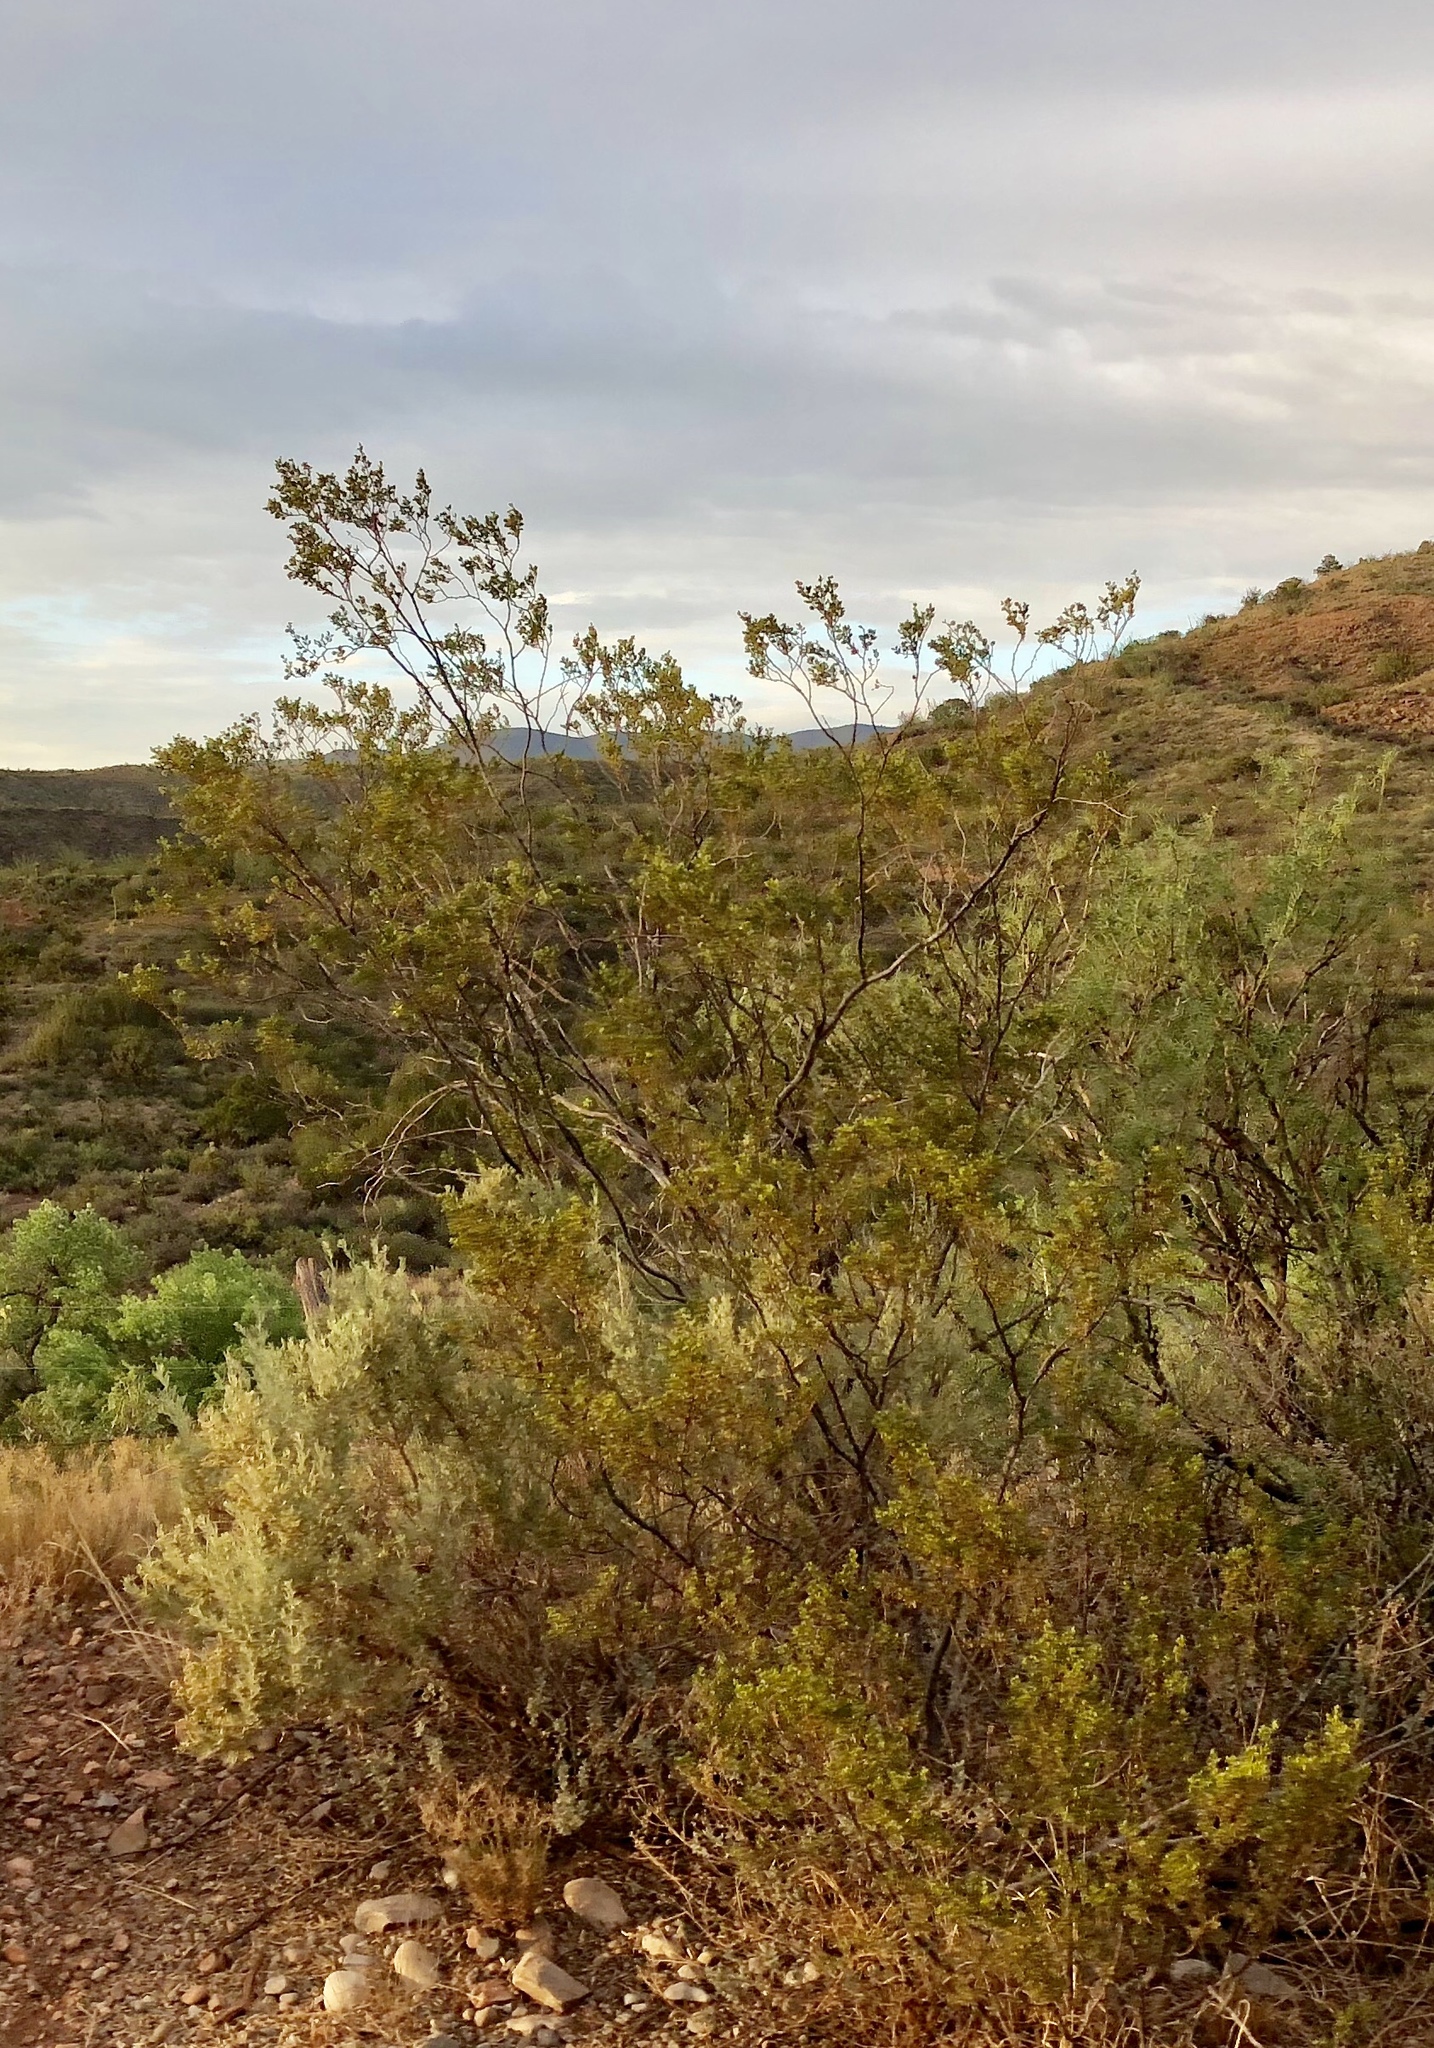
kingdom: Plantae
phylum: Tracheophyta
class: Magnoliopsida
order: Zygophyllales
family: Zygophyllaceae
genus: Larrea
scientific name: Larrea tridentata
